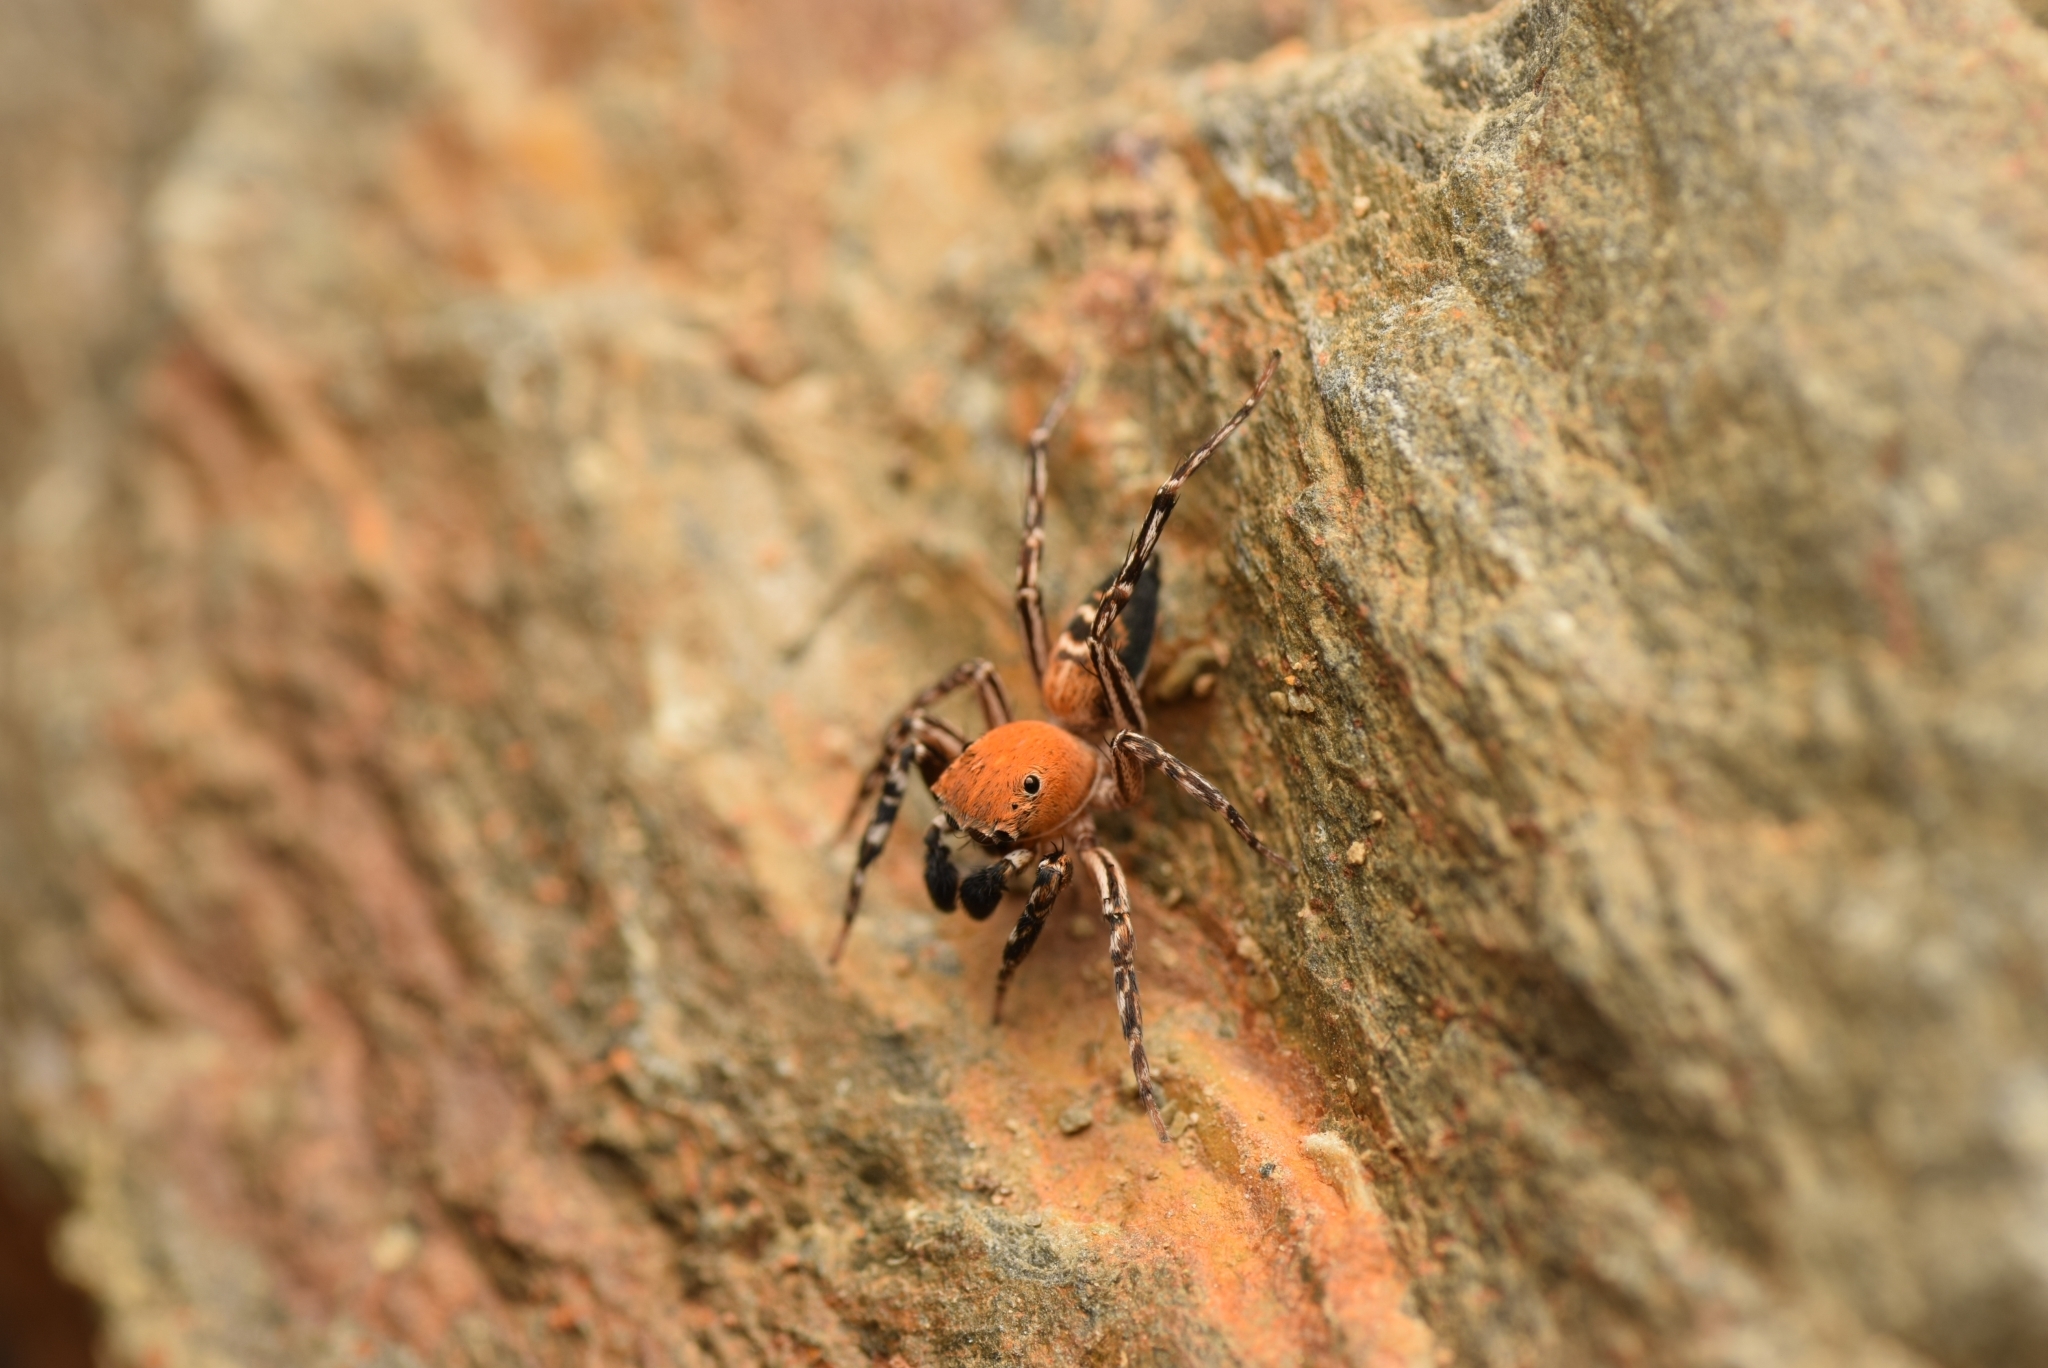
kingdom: Animalia
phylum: Arthropoda
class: Arachnida
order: Araneae
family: Salticidae
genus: Cyrba
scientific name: Cyrba algerina
